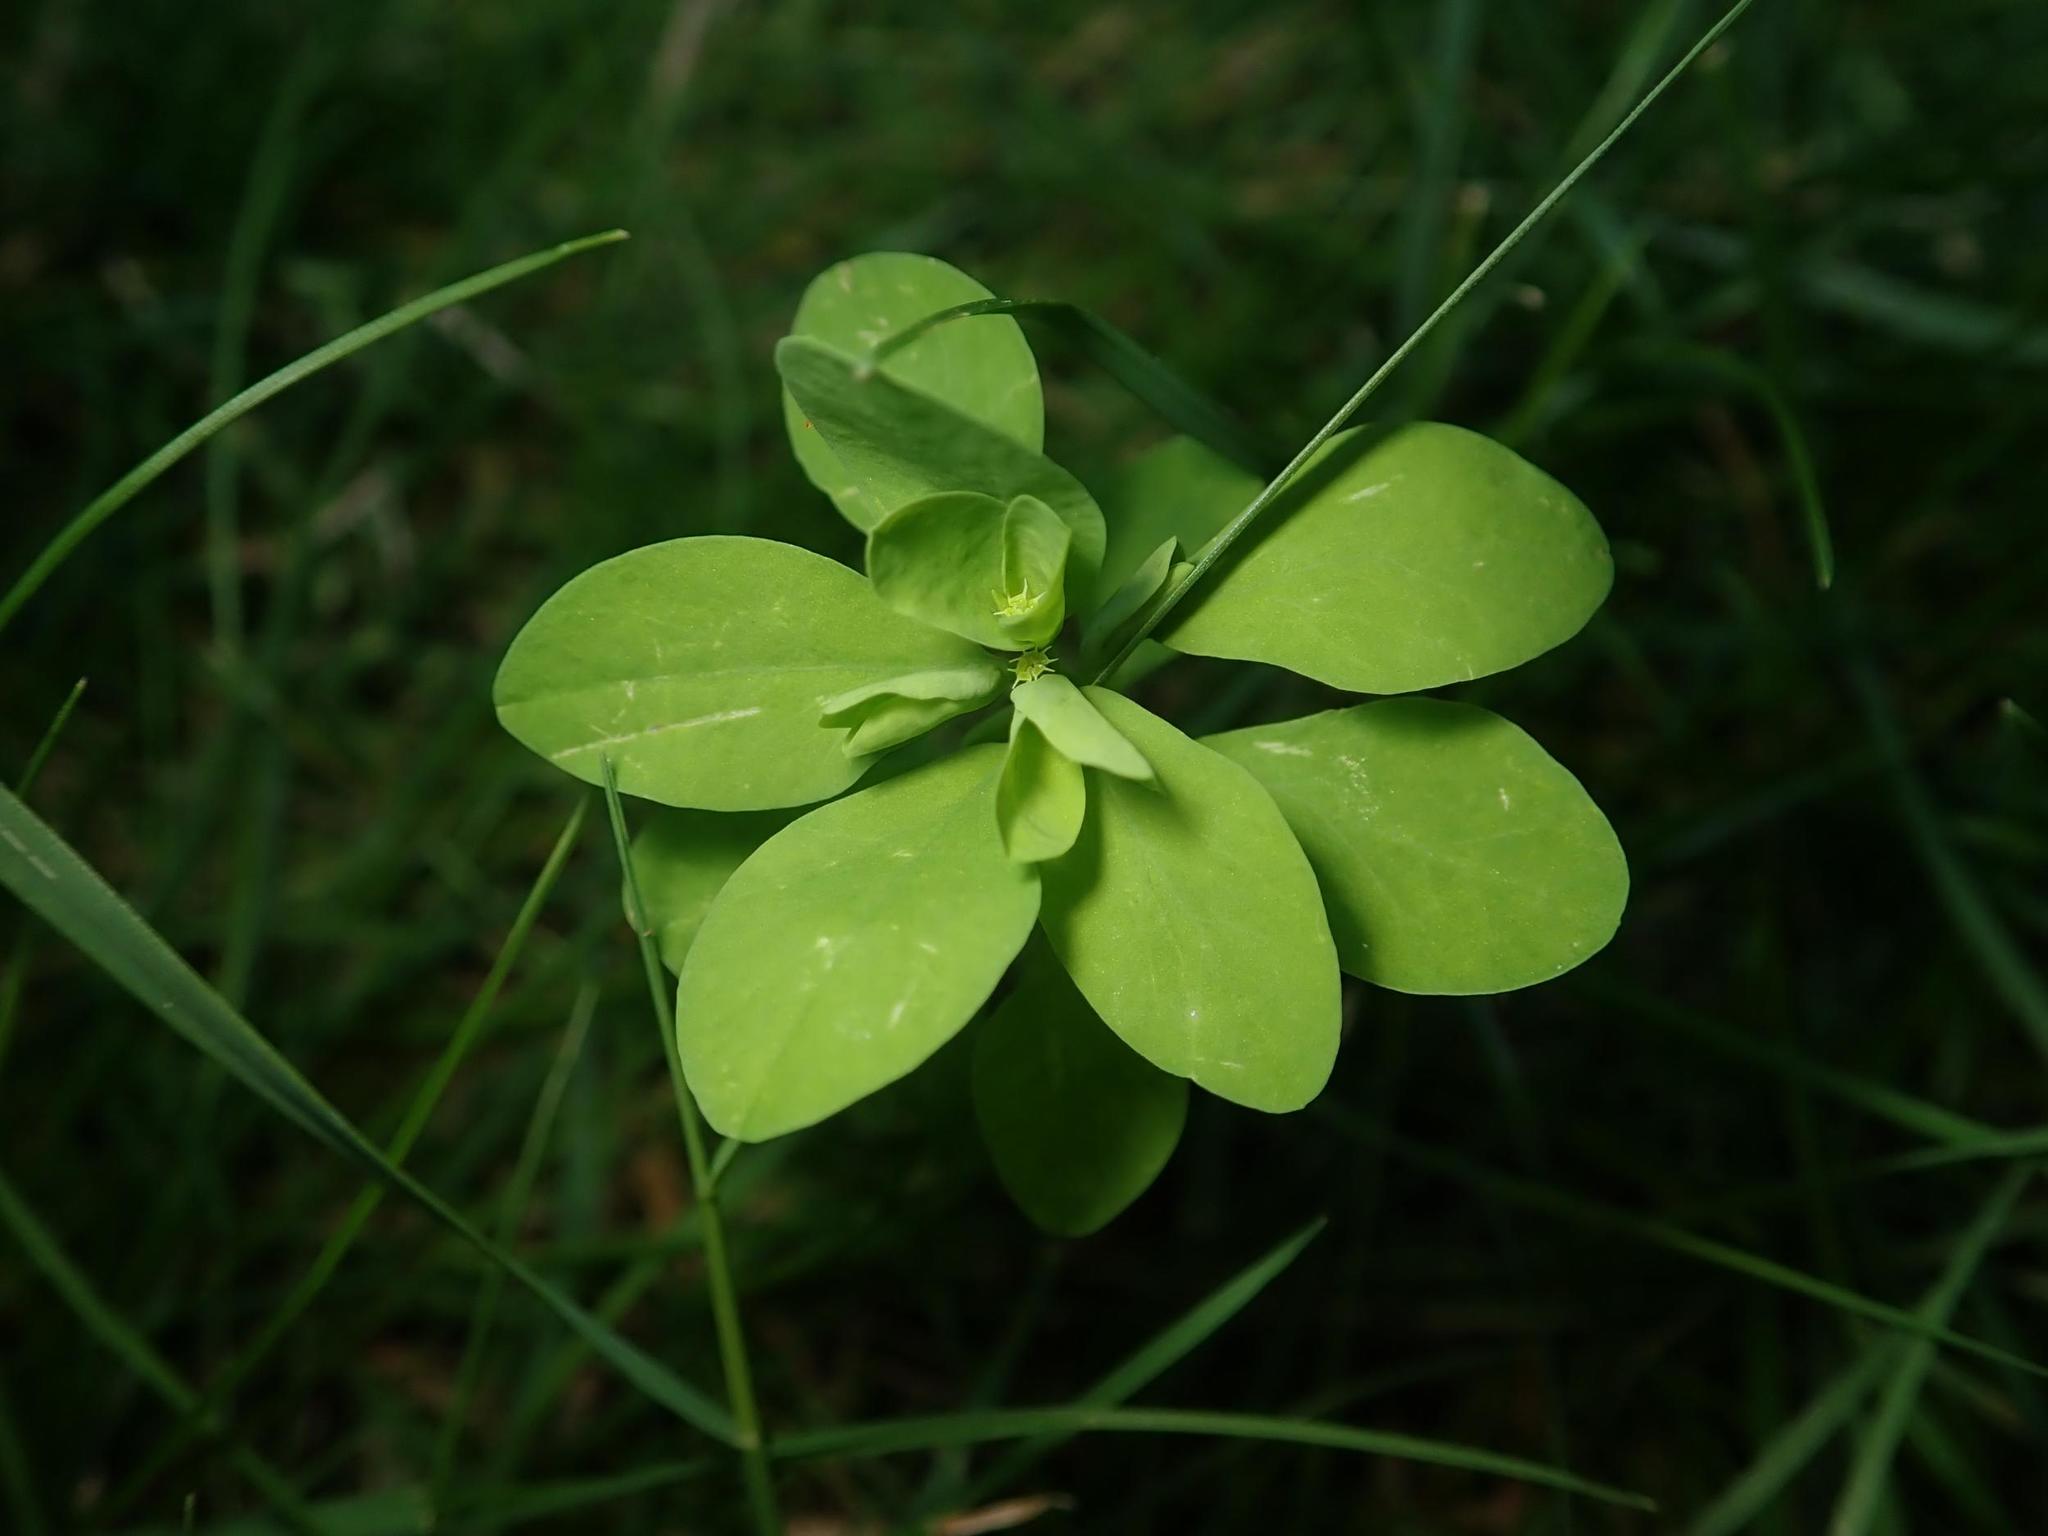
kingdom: Plantae
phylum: Tracheophyta
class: Magnoliopsida
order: Malpighiales
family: Euphorbiaceae
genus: Euphorbia
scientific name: Euphorbia peplus
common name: Petty spurge
